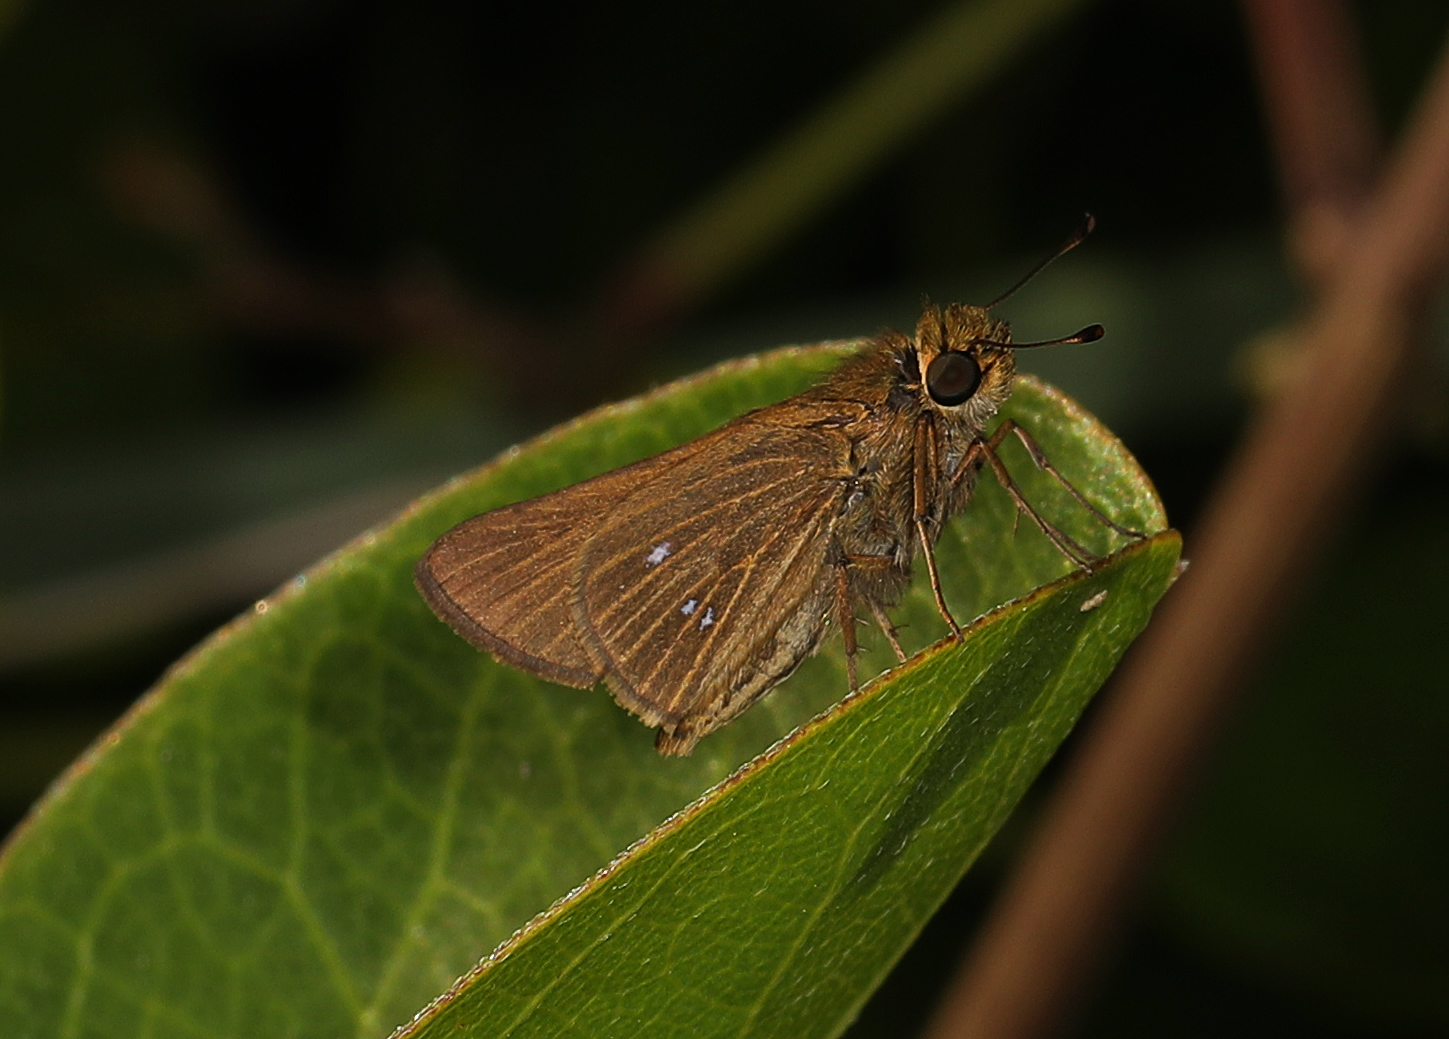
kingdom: Animalia
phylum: Arthropoda
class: Insecta
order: Lepidoptera
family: Hesperiidae
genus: Panoquina
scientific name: Panoquina panoquinoides
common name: Beach skipper
